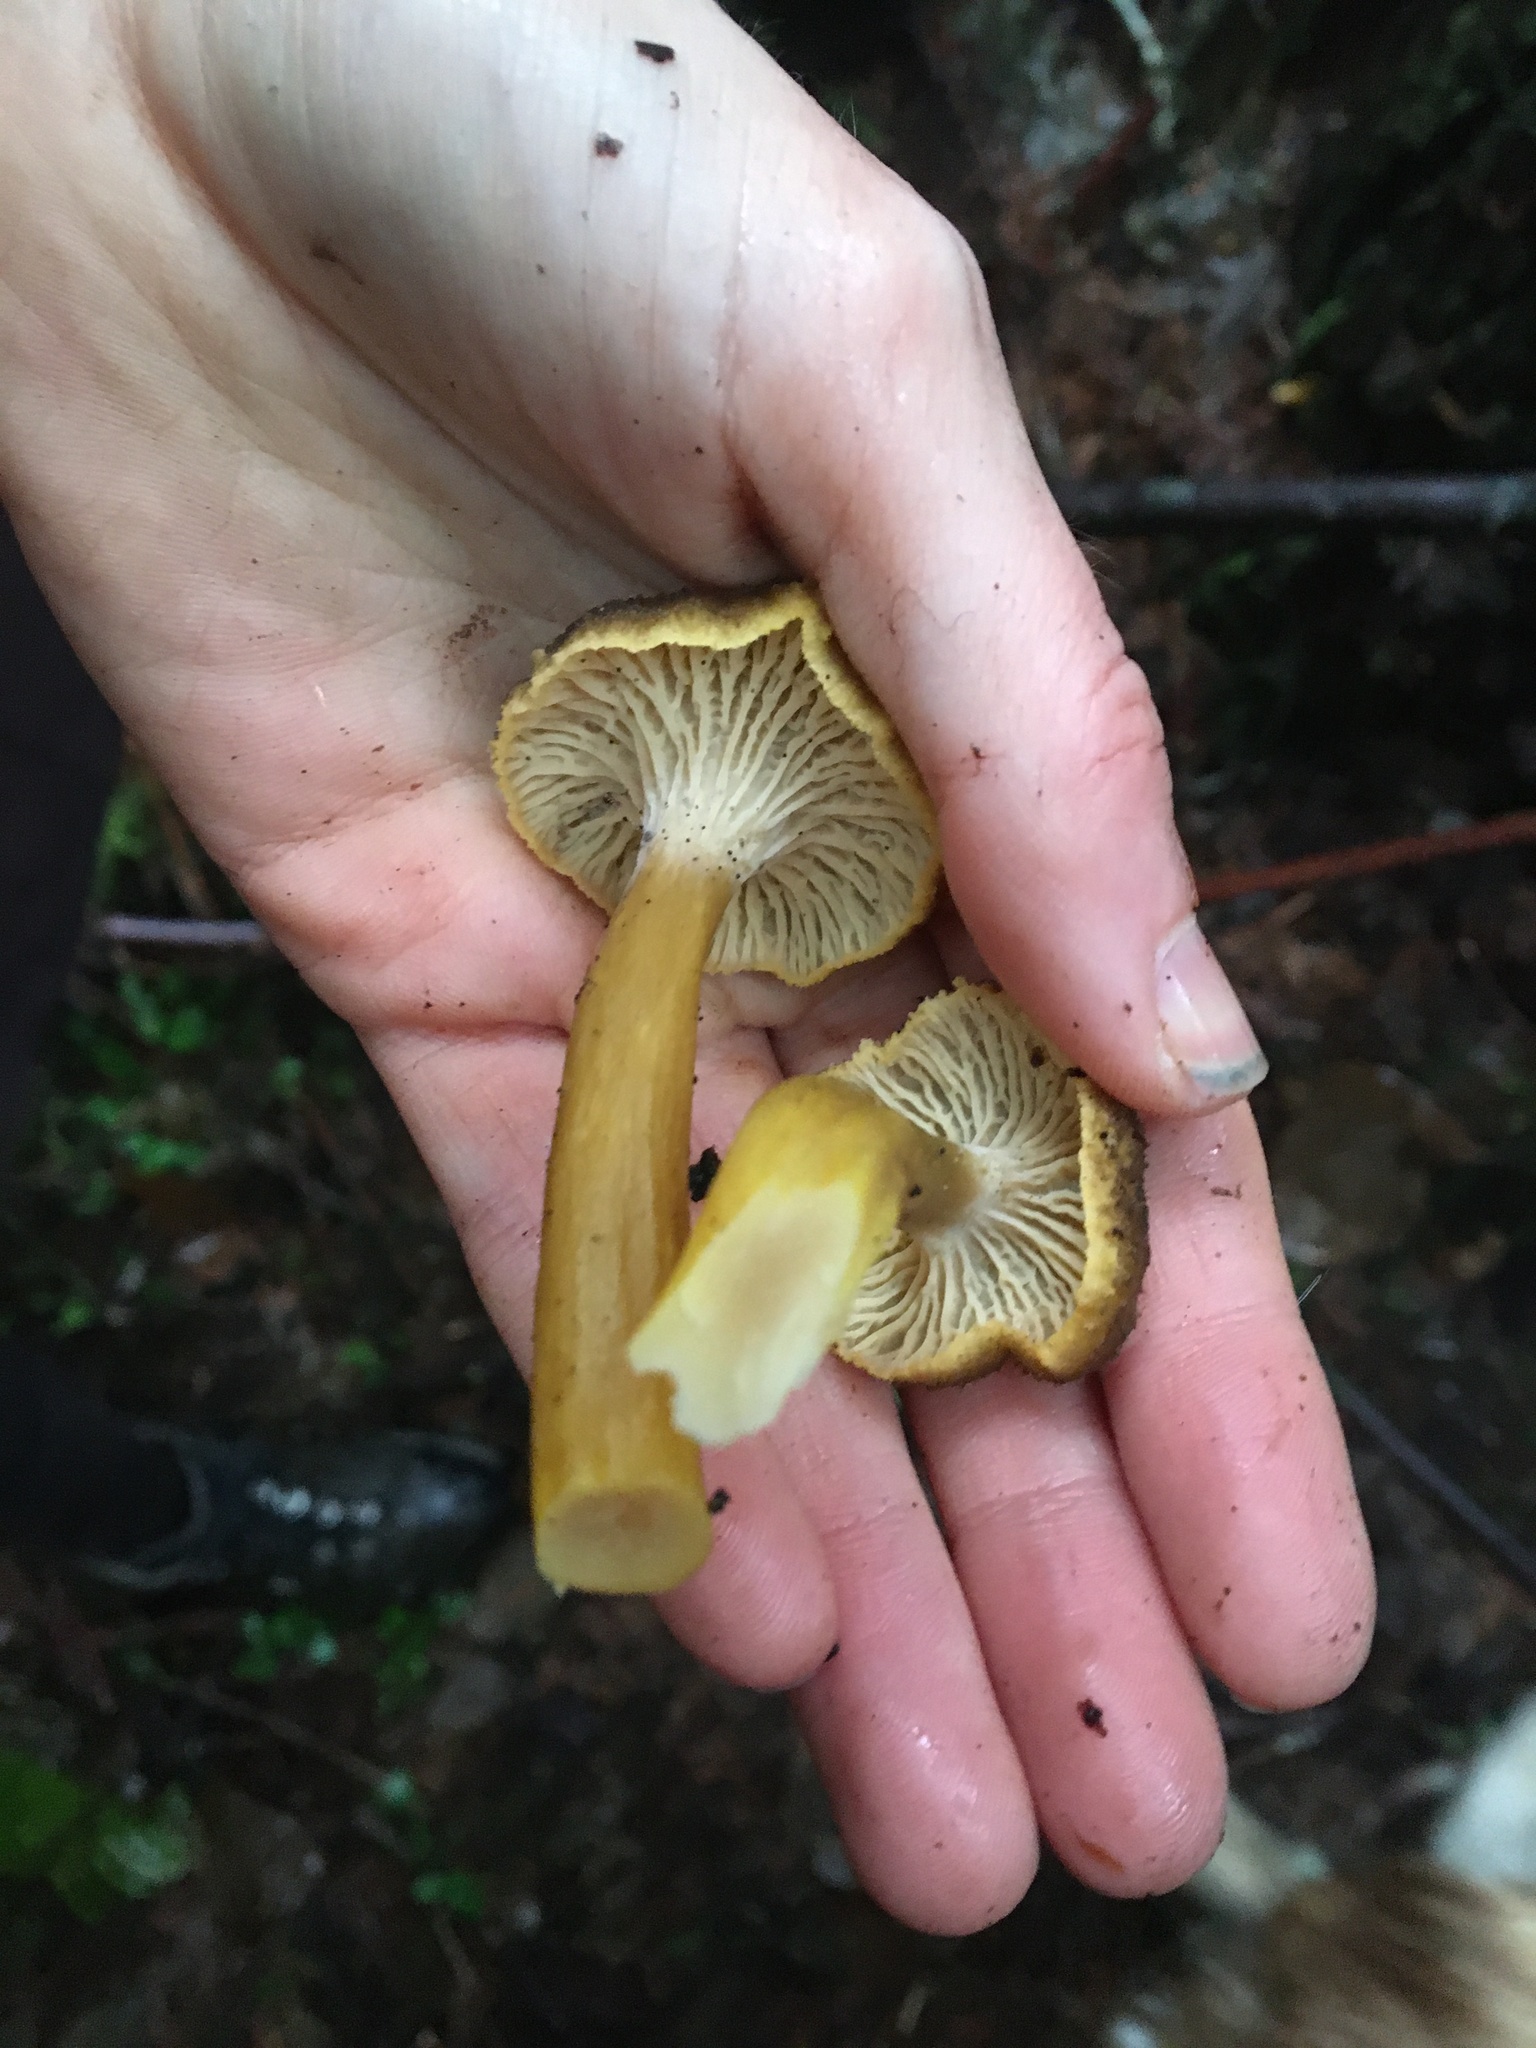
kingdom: Fungi
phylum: Basidiomycota
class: Agaricomycetes
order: Cantharellales
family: Hydnaceae
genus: Craterellus
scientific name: Craterellus tubaeformis
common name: Yellowfoot
